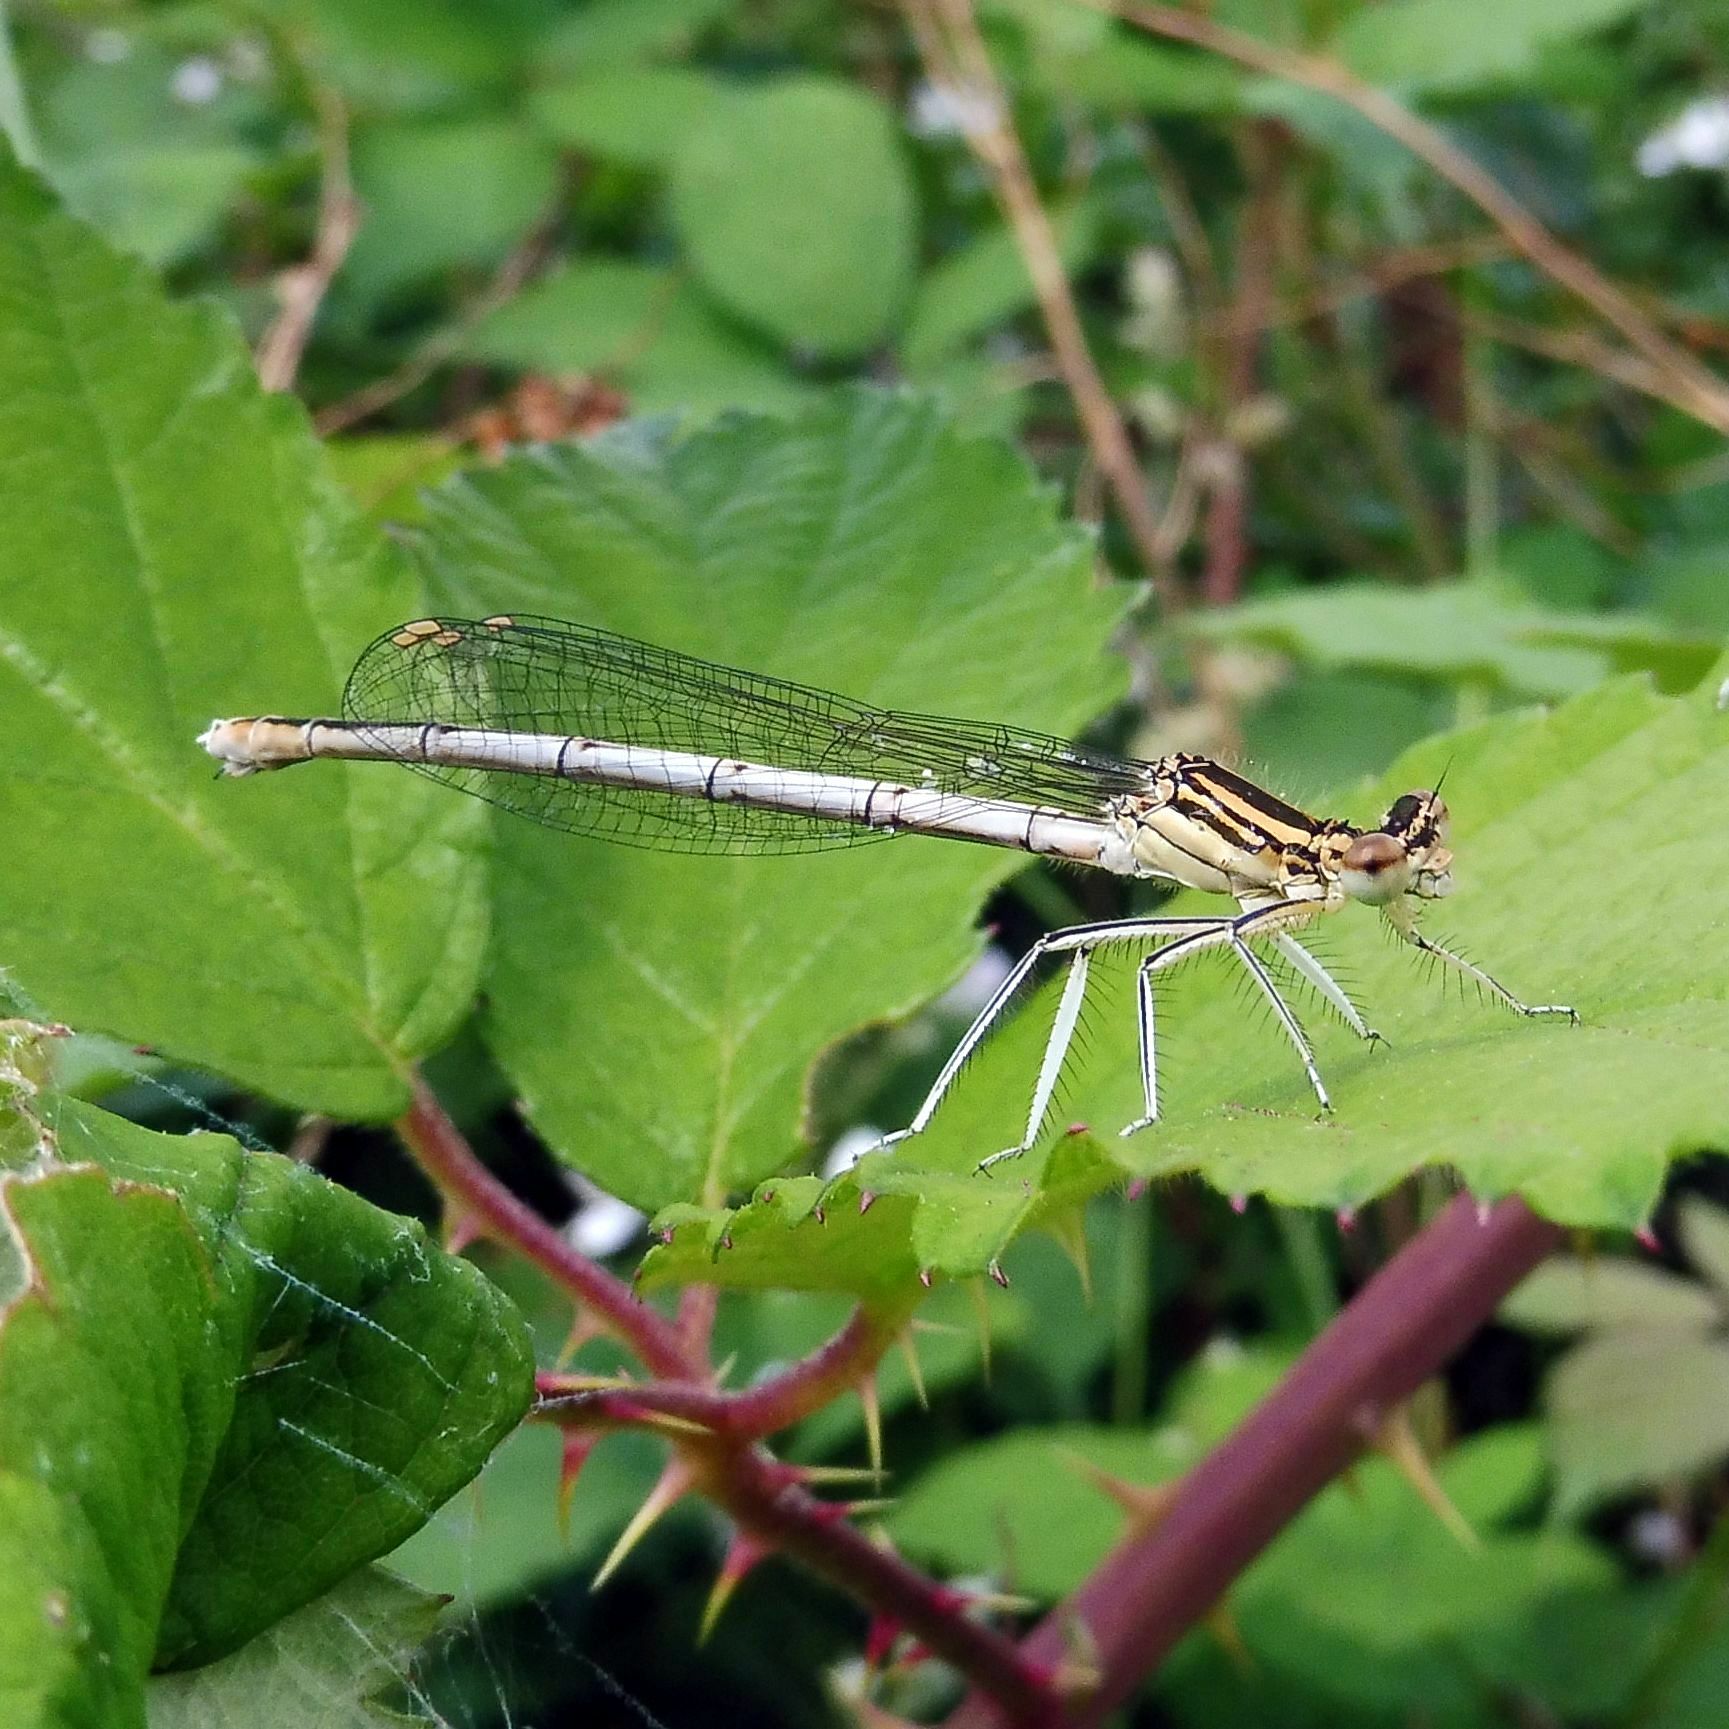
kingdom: Animalia
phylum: Arthropoda
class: Insecta
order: Odonata
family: Platycnemididae
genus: Platycnemis
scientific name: Platycnemis pennipes
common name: White-legged damselfly
